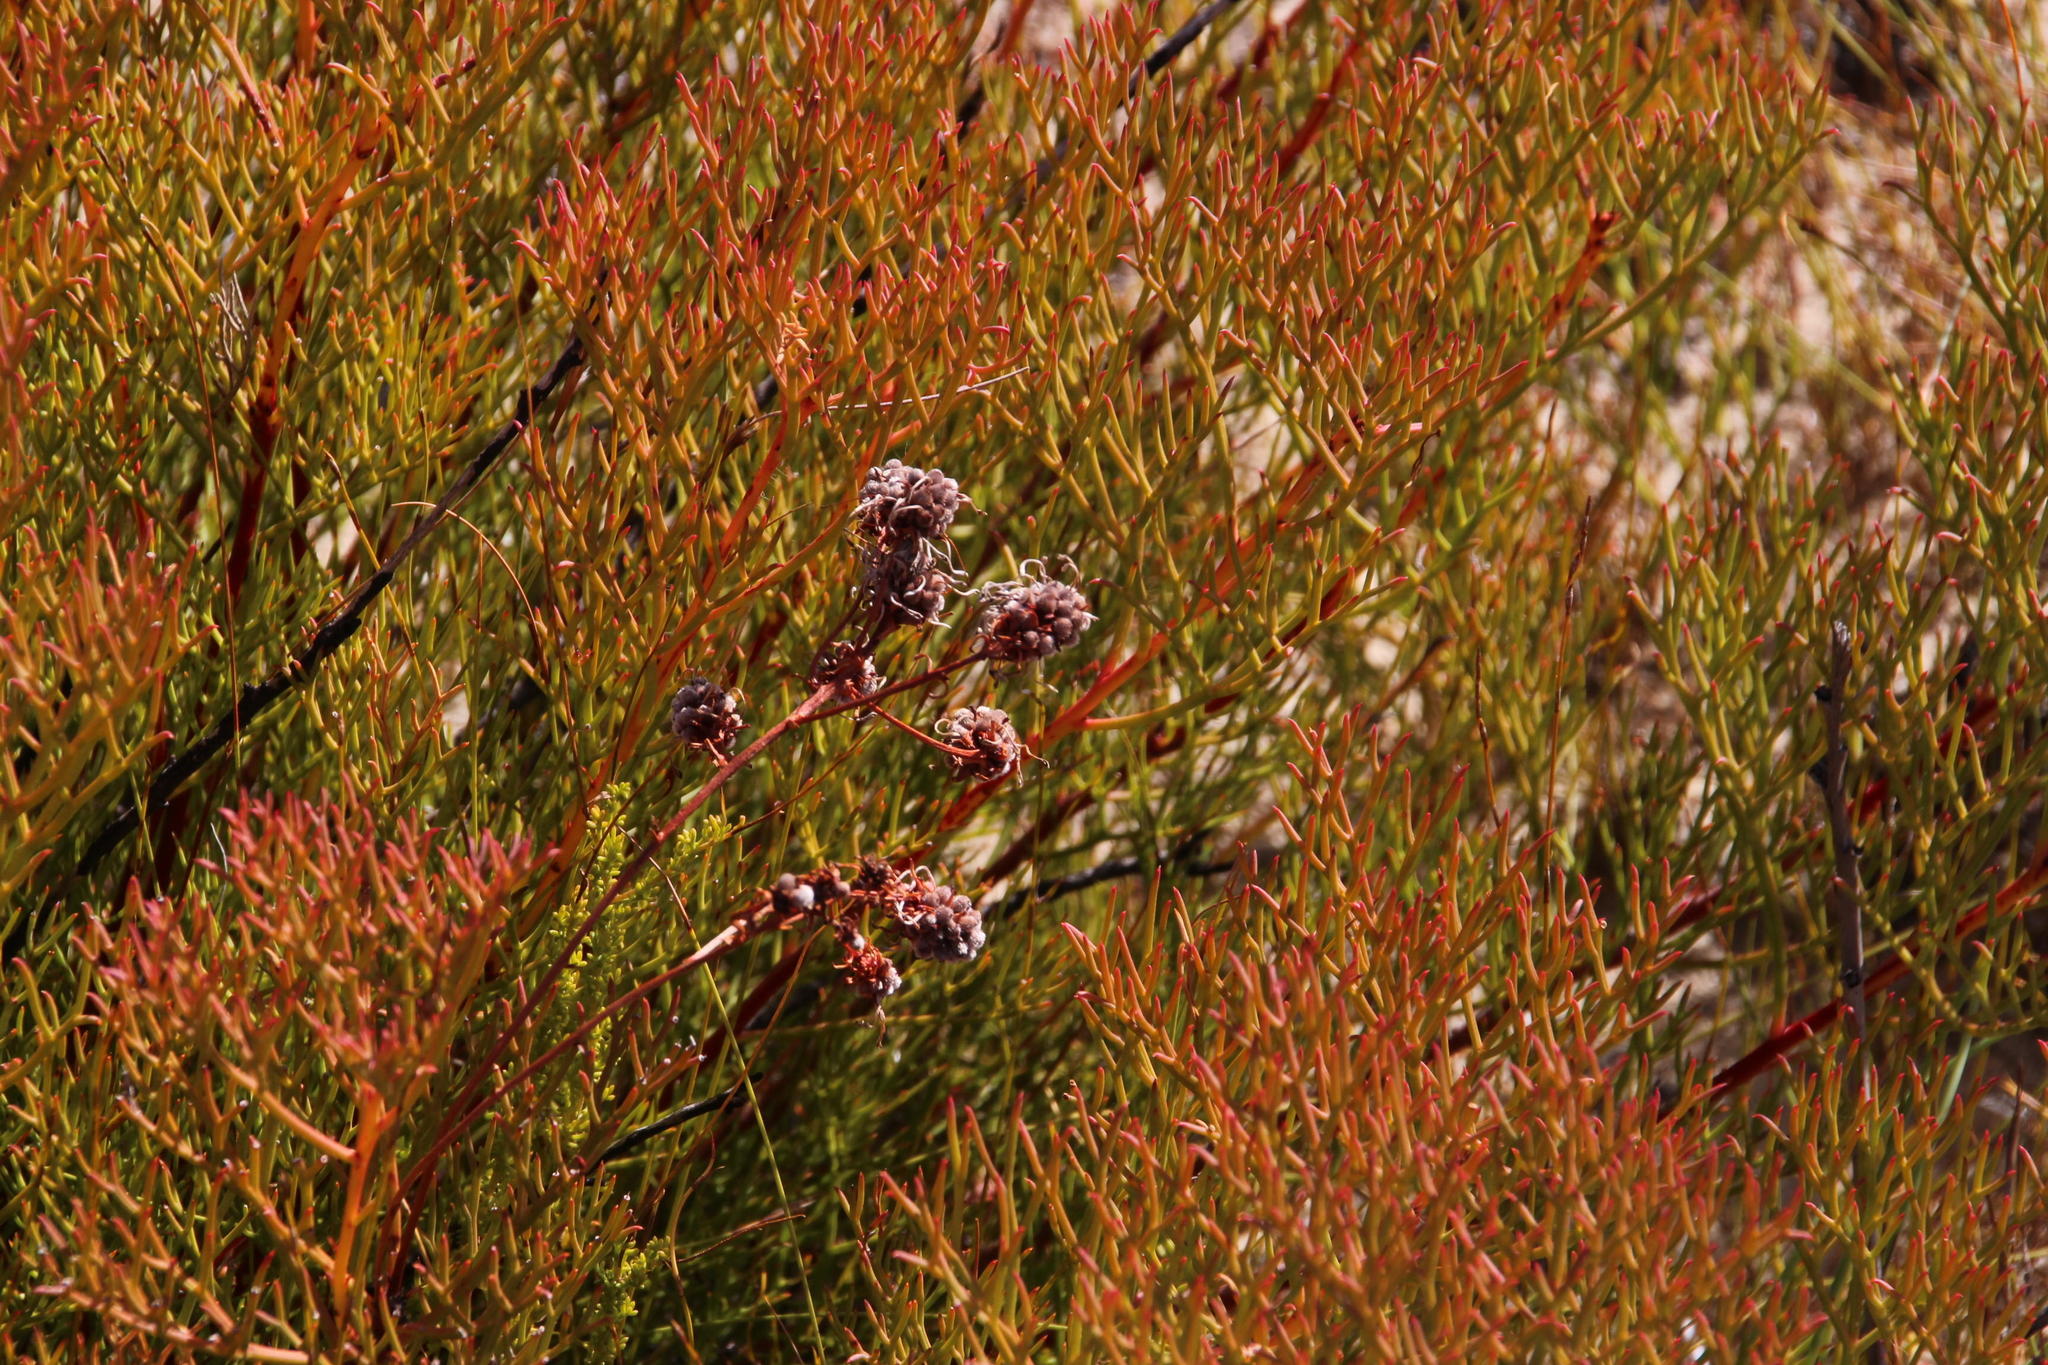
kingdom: Plantae
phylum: Tracheophyta
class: Magnoliopsida
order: Proteales
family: Proteaceae
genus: Serruria
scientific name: Serruria leipoldtii
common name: Leipoldt's spiderhead
